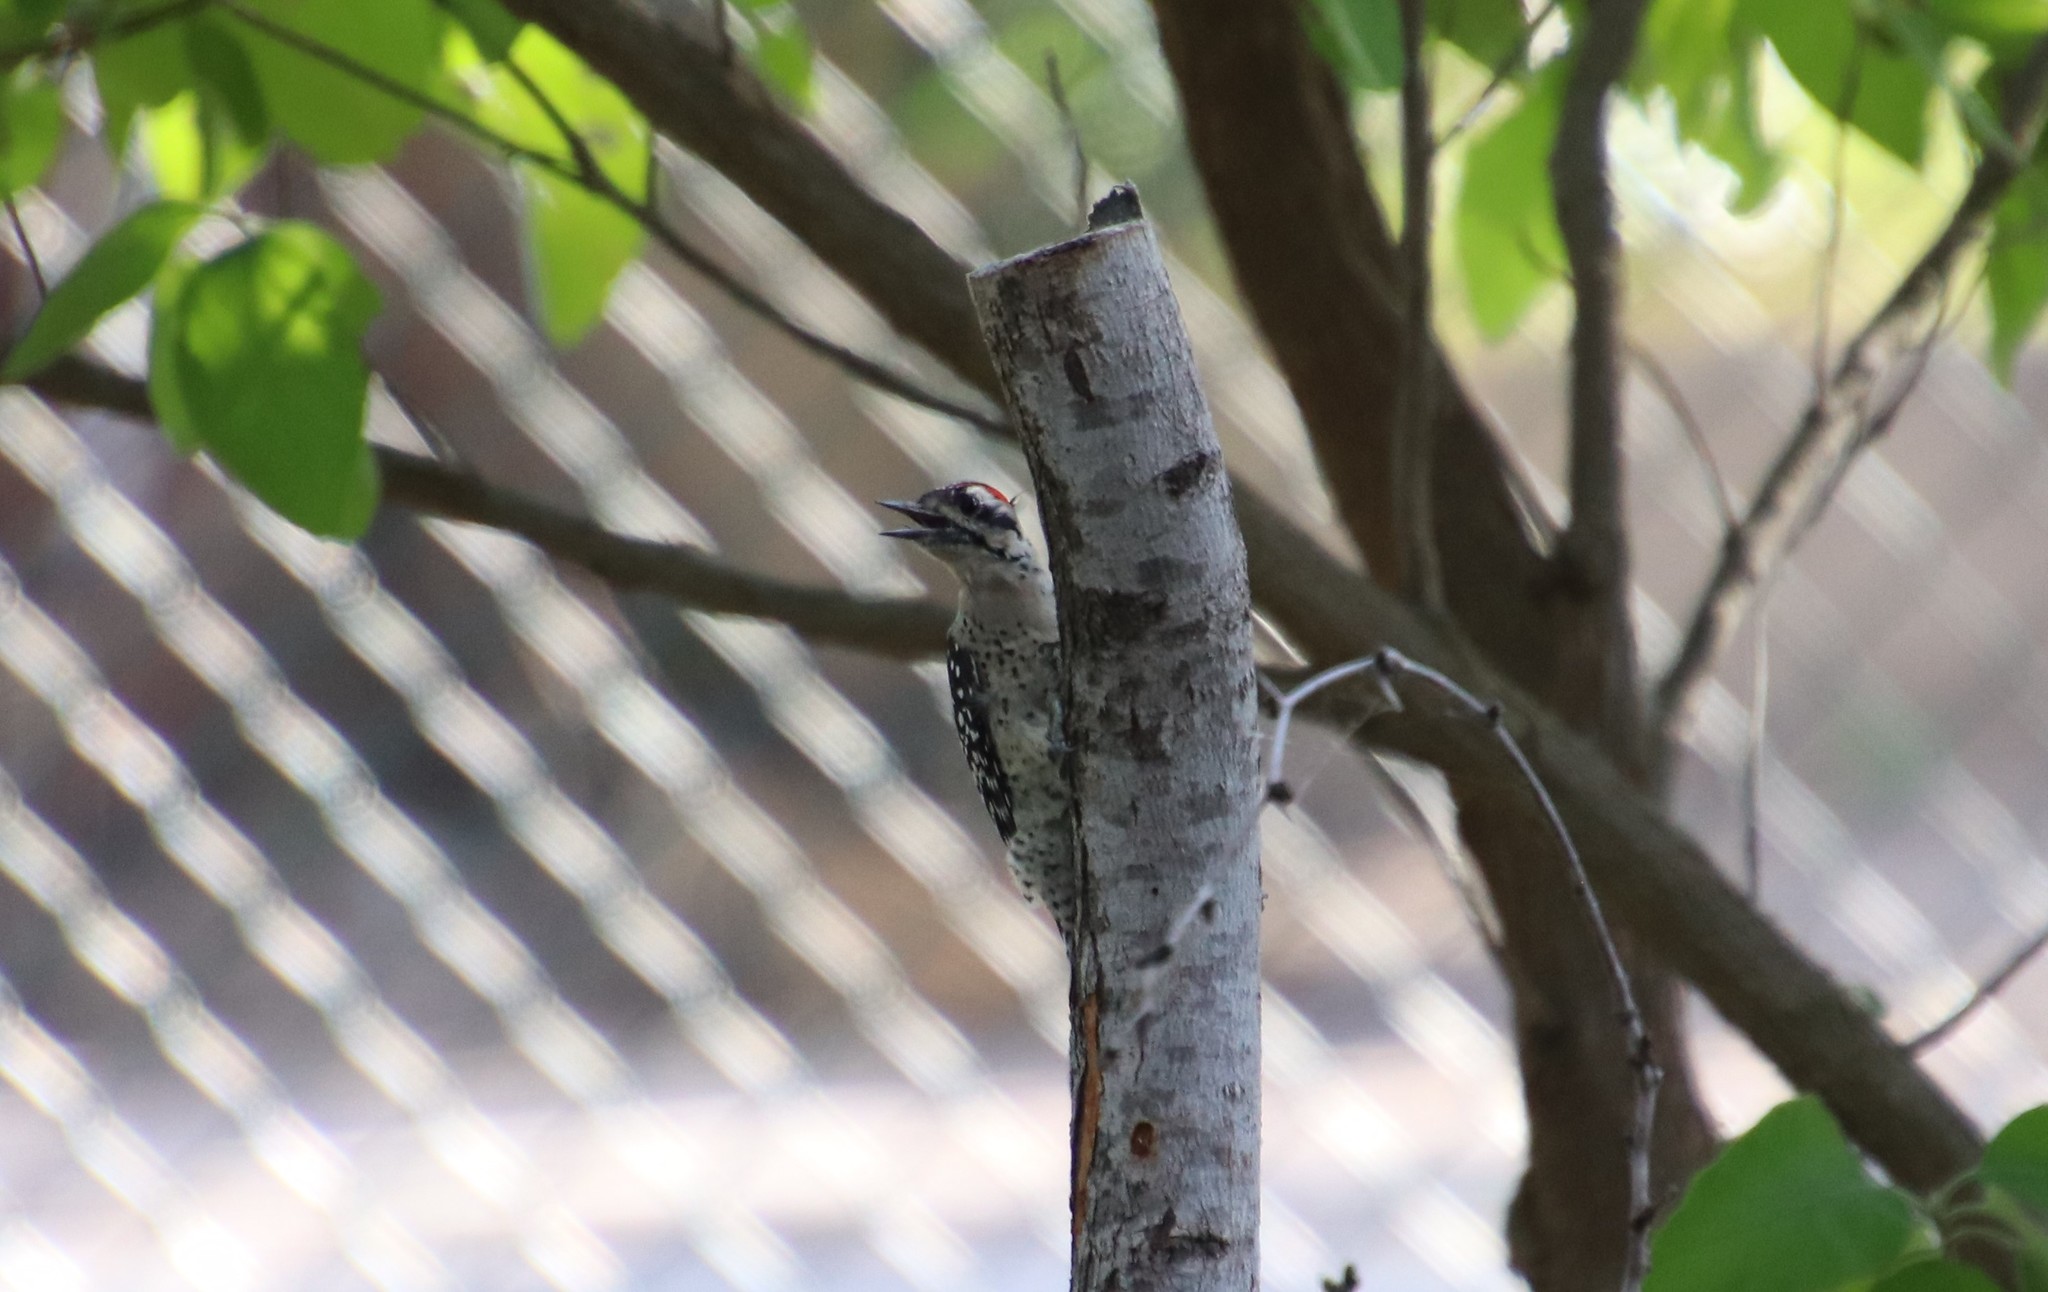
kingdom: Animalia
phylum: Chordata
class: Aves
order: Piciformes
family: Picidae
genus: Dryobates
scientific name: Dryobates scalaris
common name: Ladder-backed woodpecker
